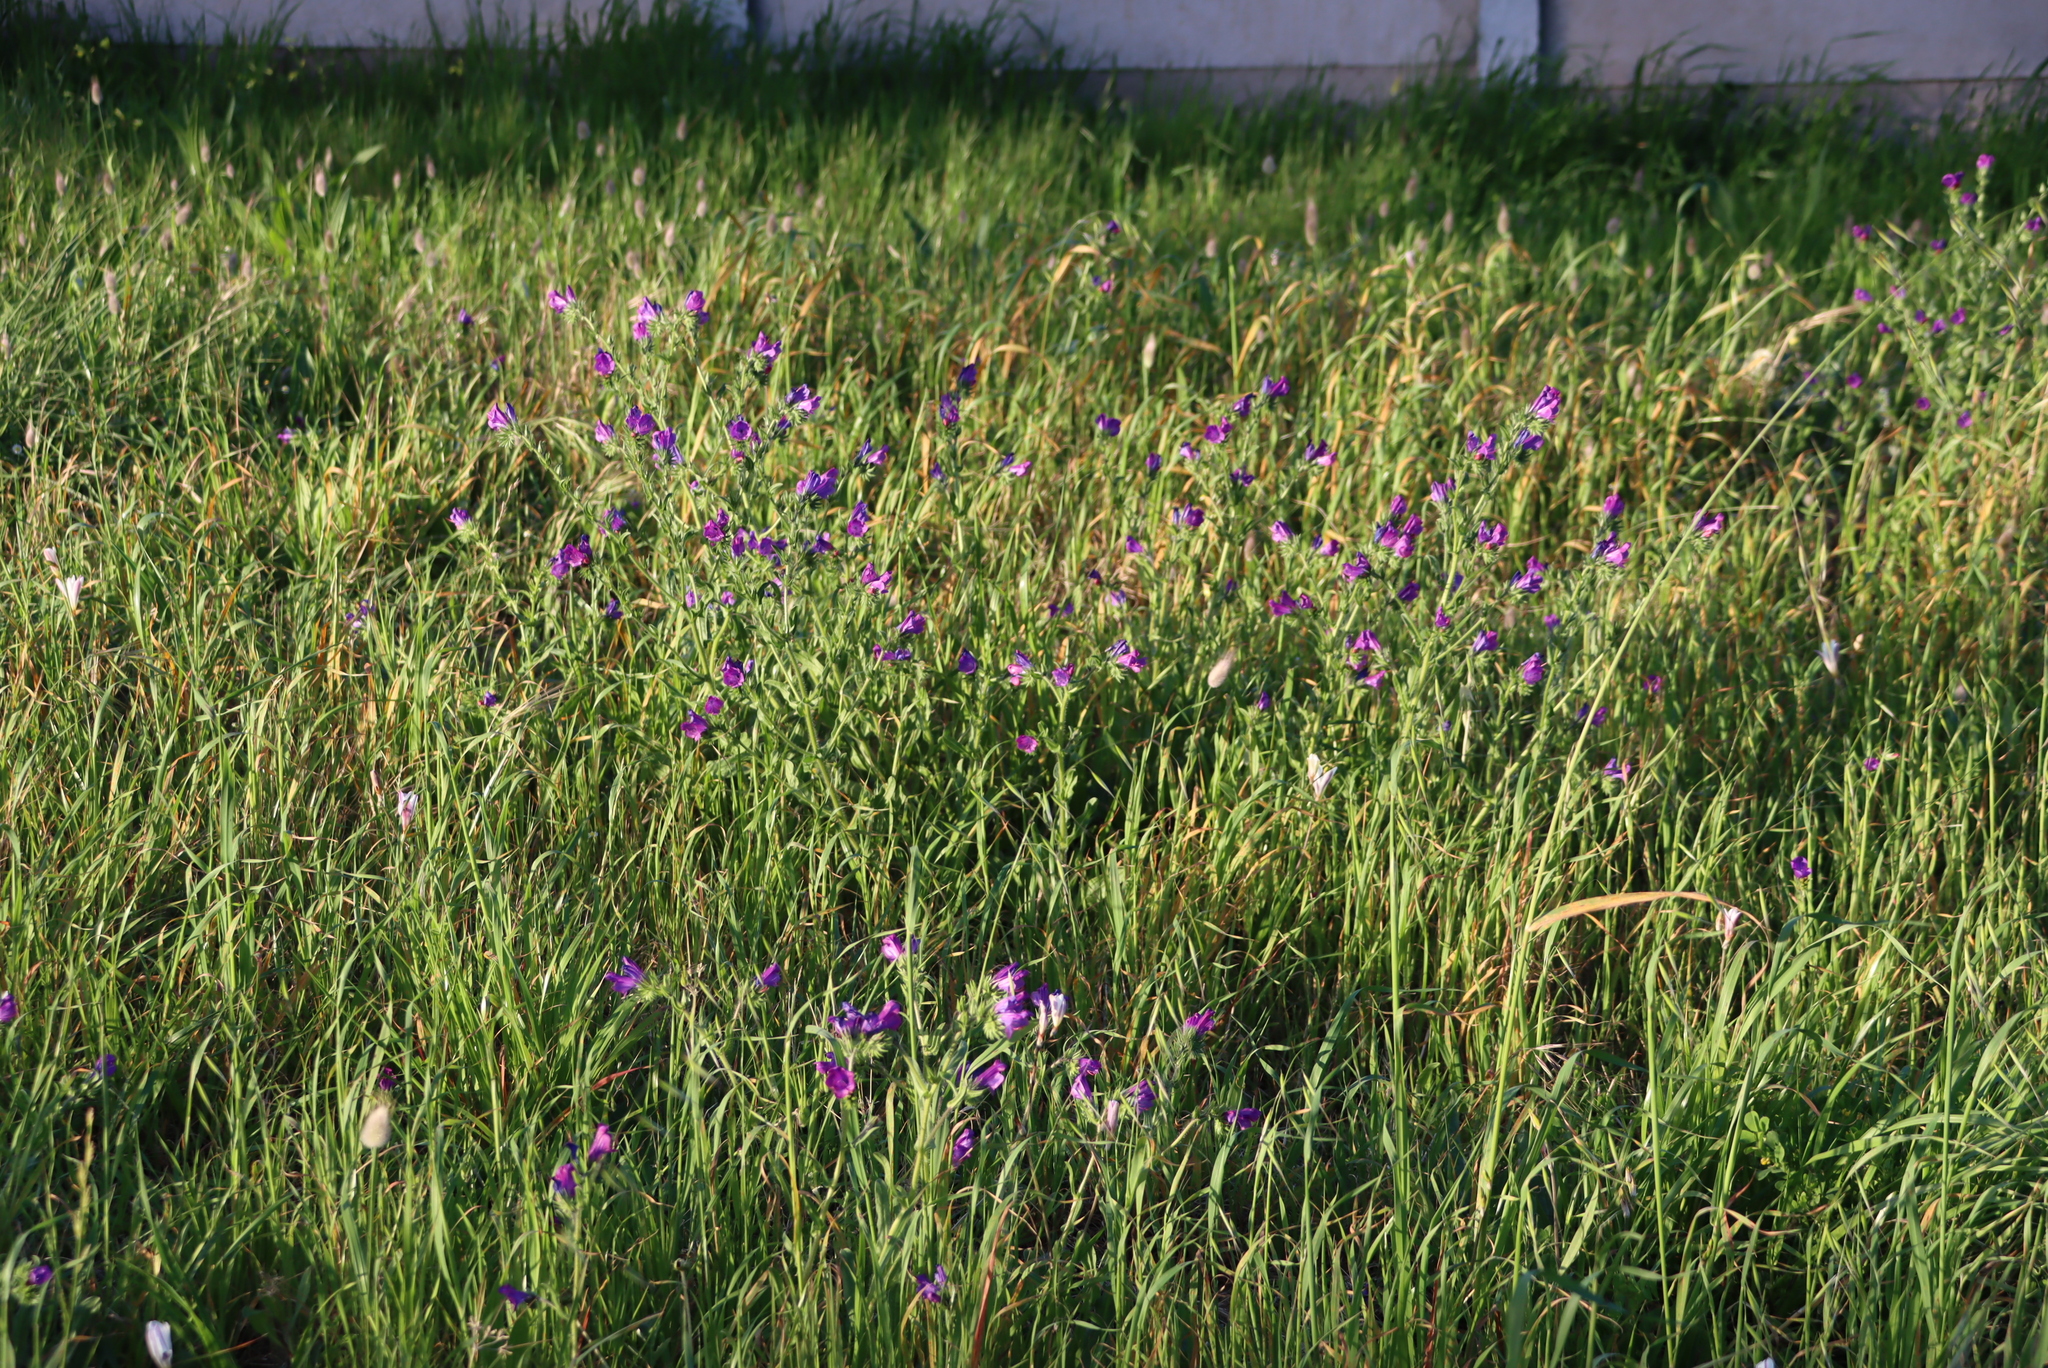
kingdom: Plantae
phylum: Tracheophyta
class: Magnoliopsida
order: Boraginales
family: Boraginaceae
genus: Echium
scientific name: Echium plantagineum
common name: Purple viper's-bugloss
